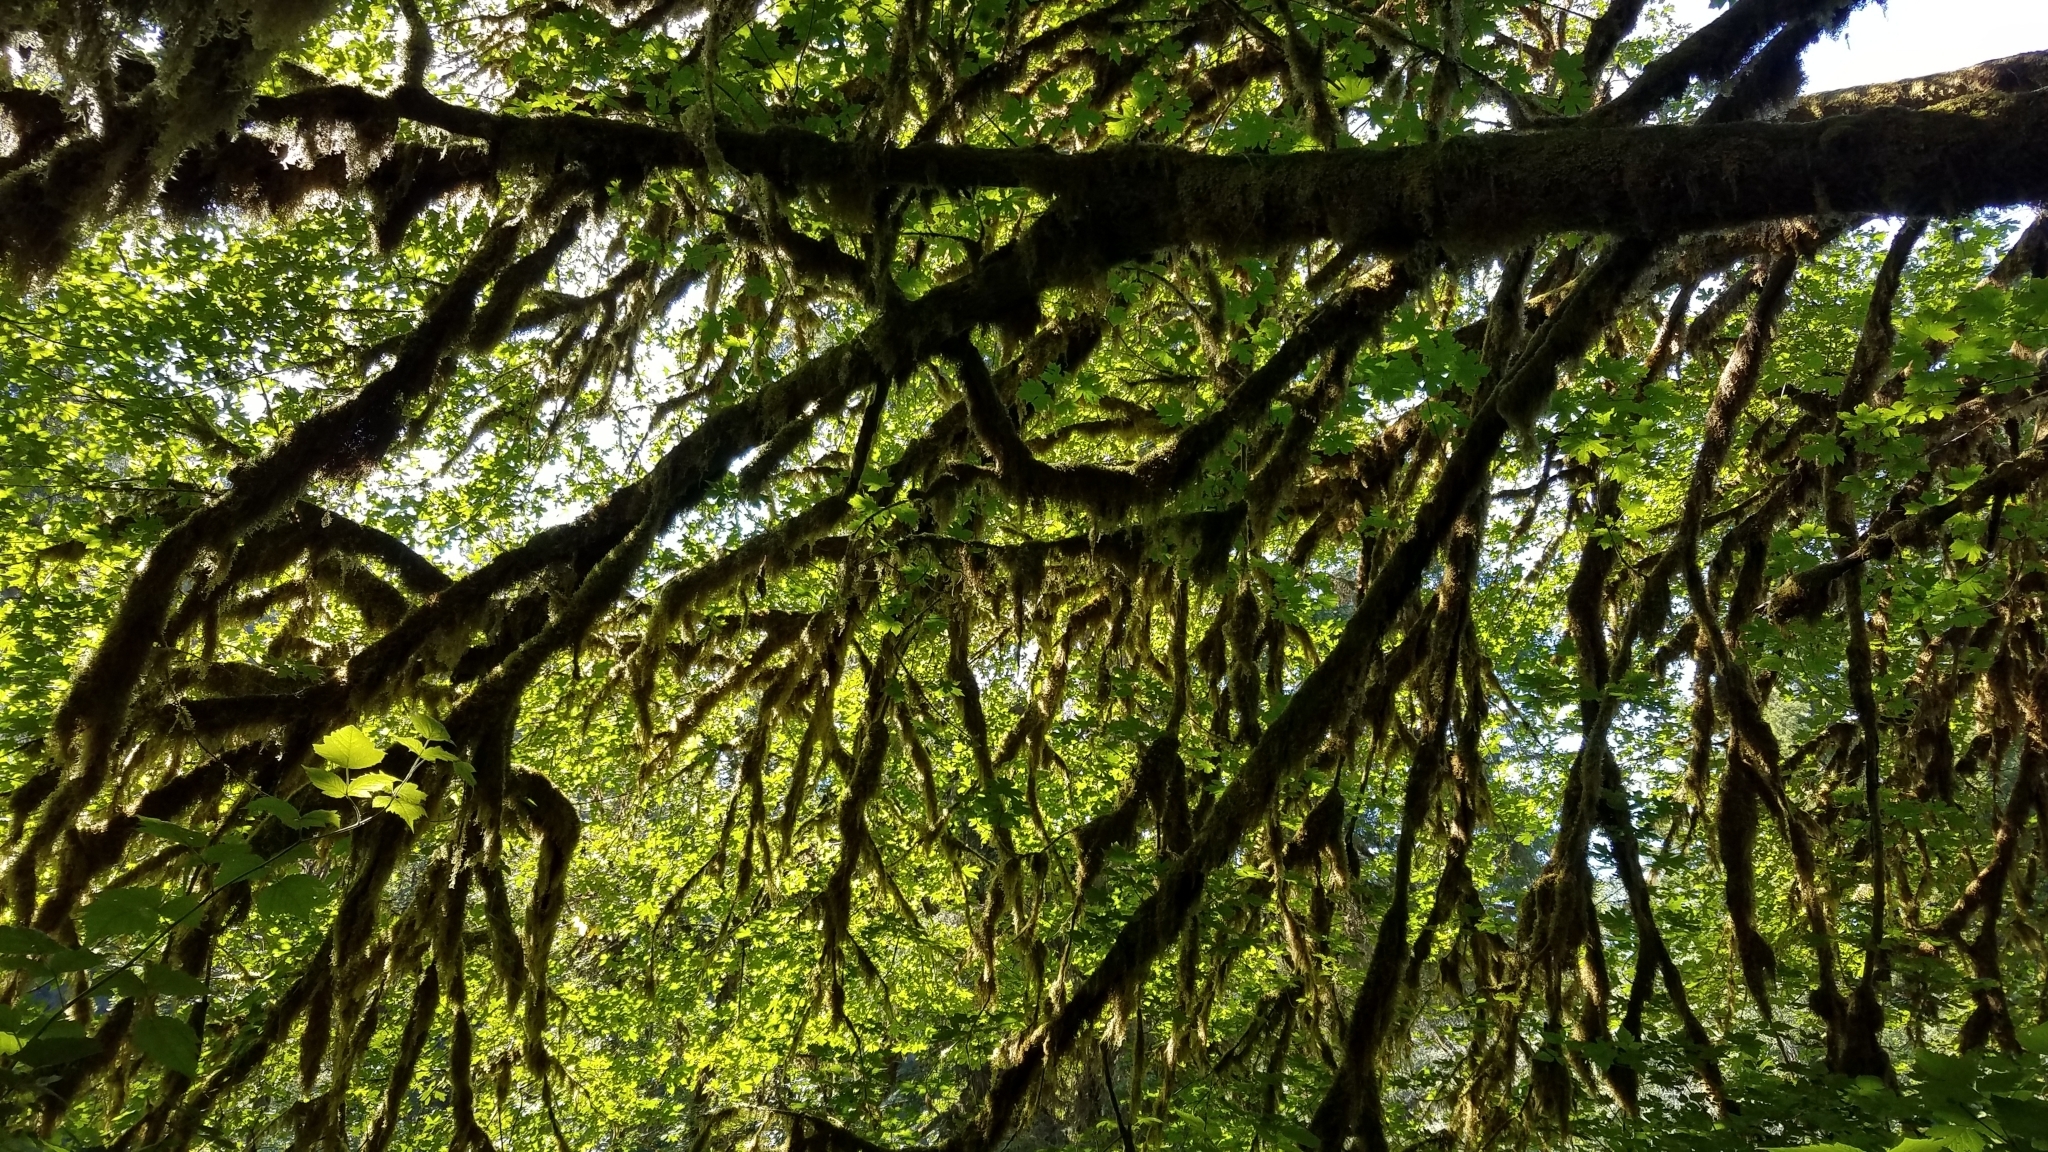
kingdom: Plantae
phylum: Tracheophyta
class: Magnoliopsida
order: Sapindales
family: Sapindaceae
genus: Acer
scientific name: Acer macrophyllum
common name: Oregon maple
